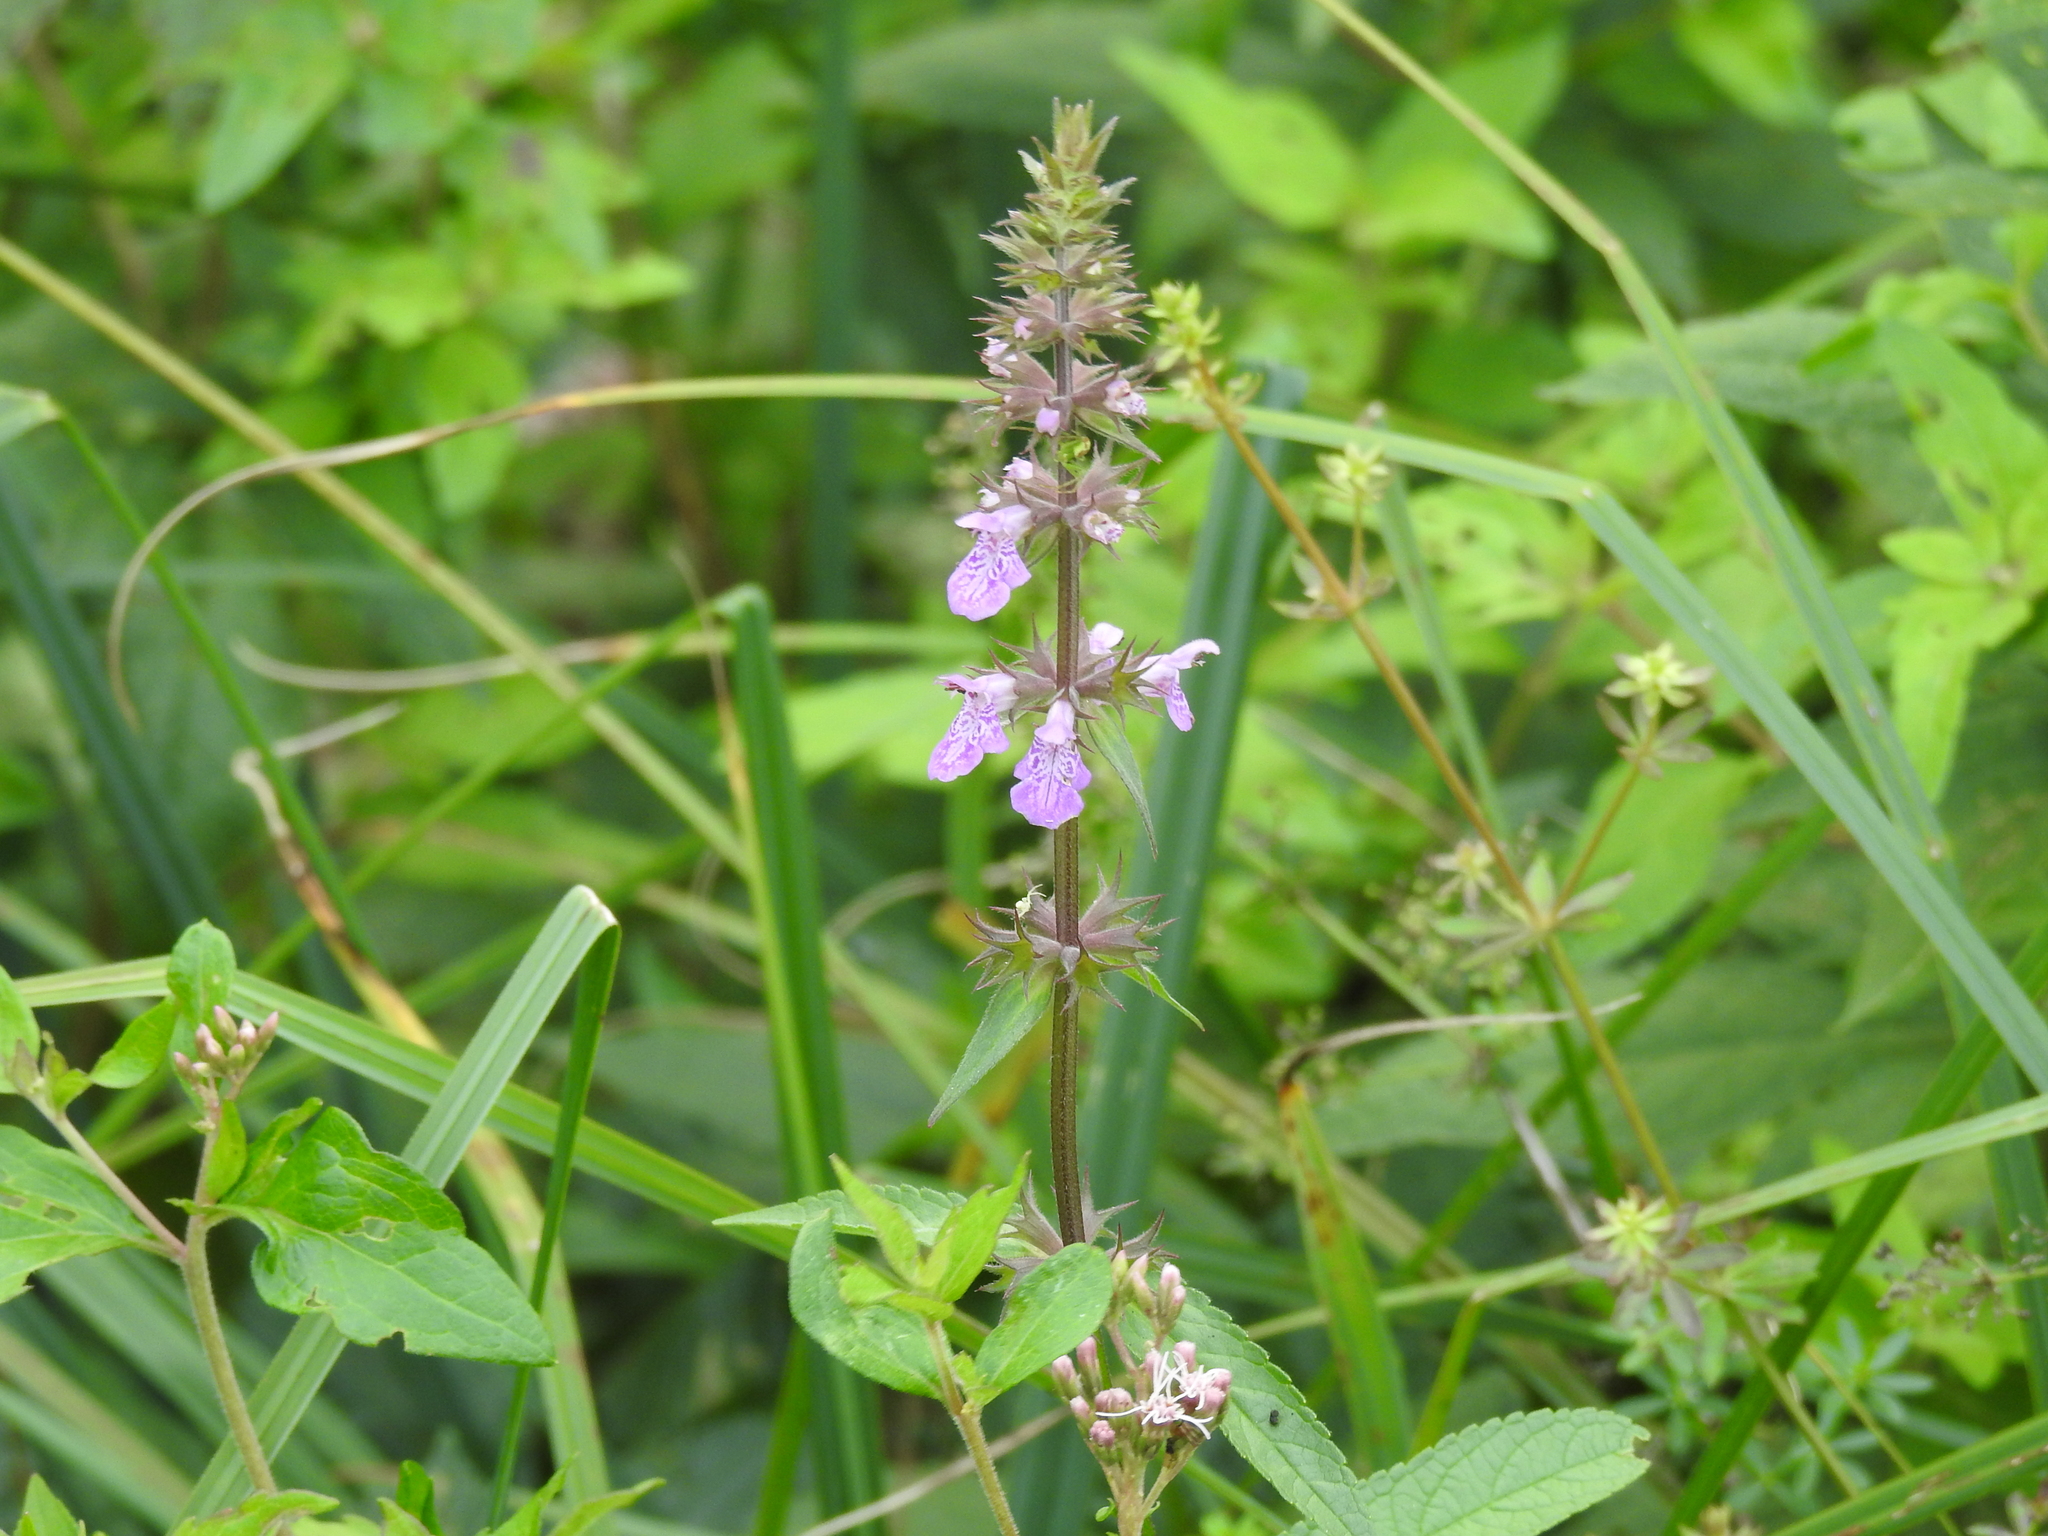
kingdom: Plantae
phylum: Tracheophyta
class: Magnoliopsida
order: Lamiales
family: Lamiaceae
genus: Stachys
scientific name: Stachys palustris
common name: Marsh woundwort
